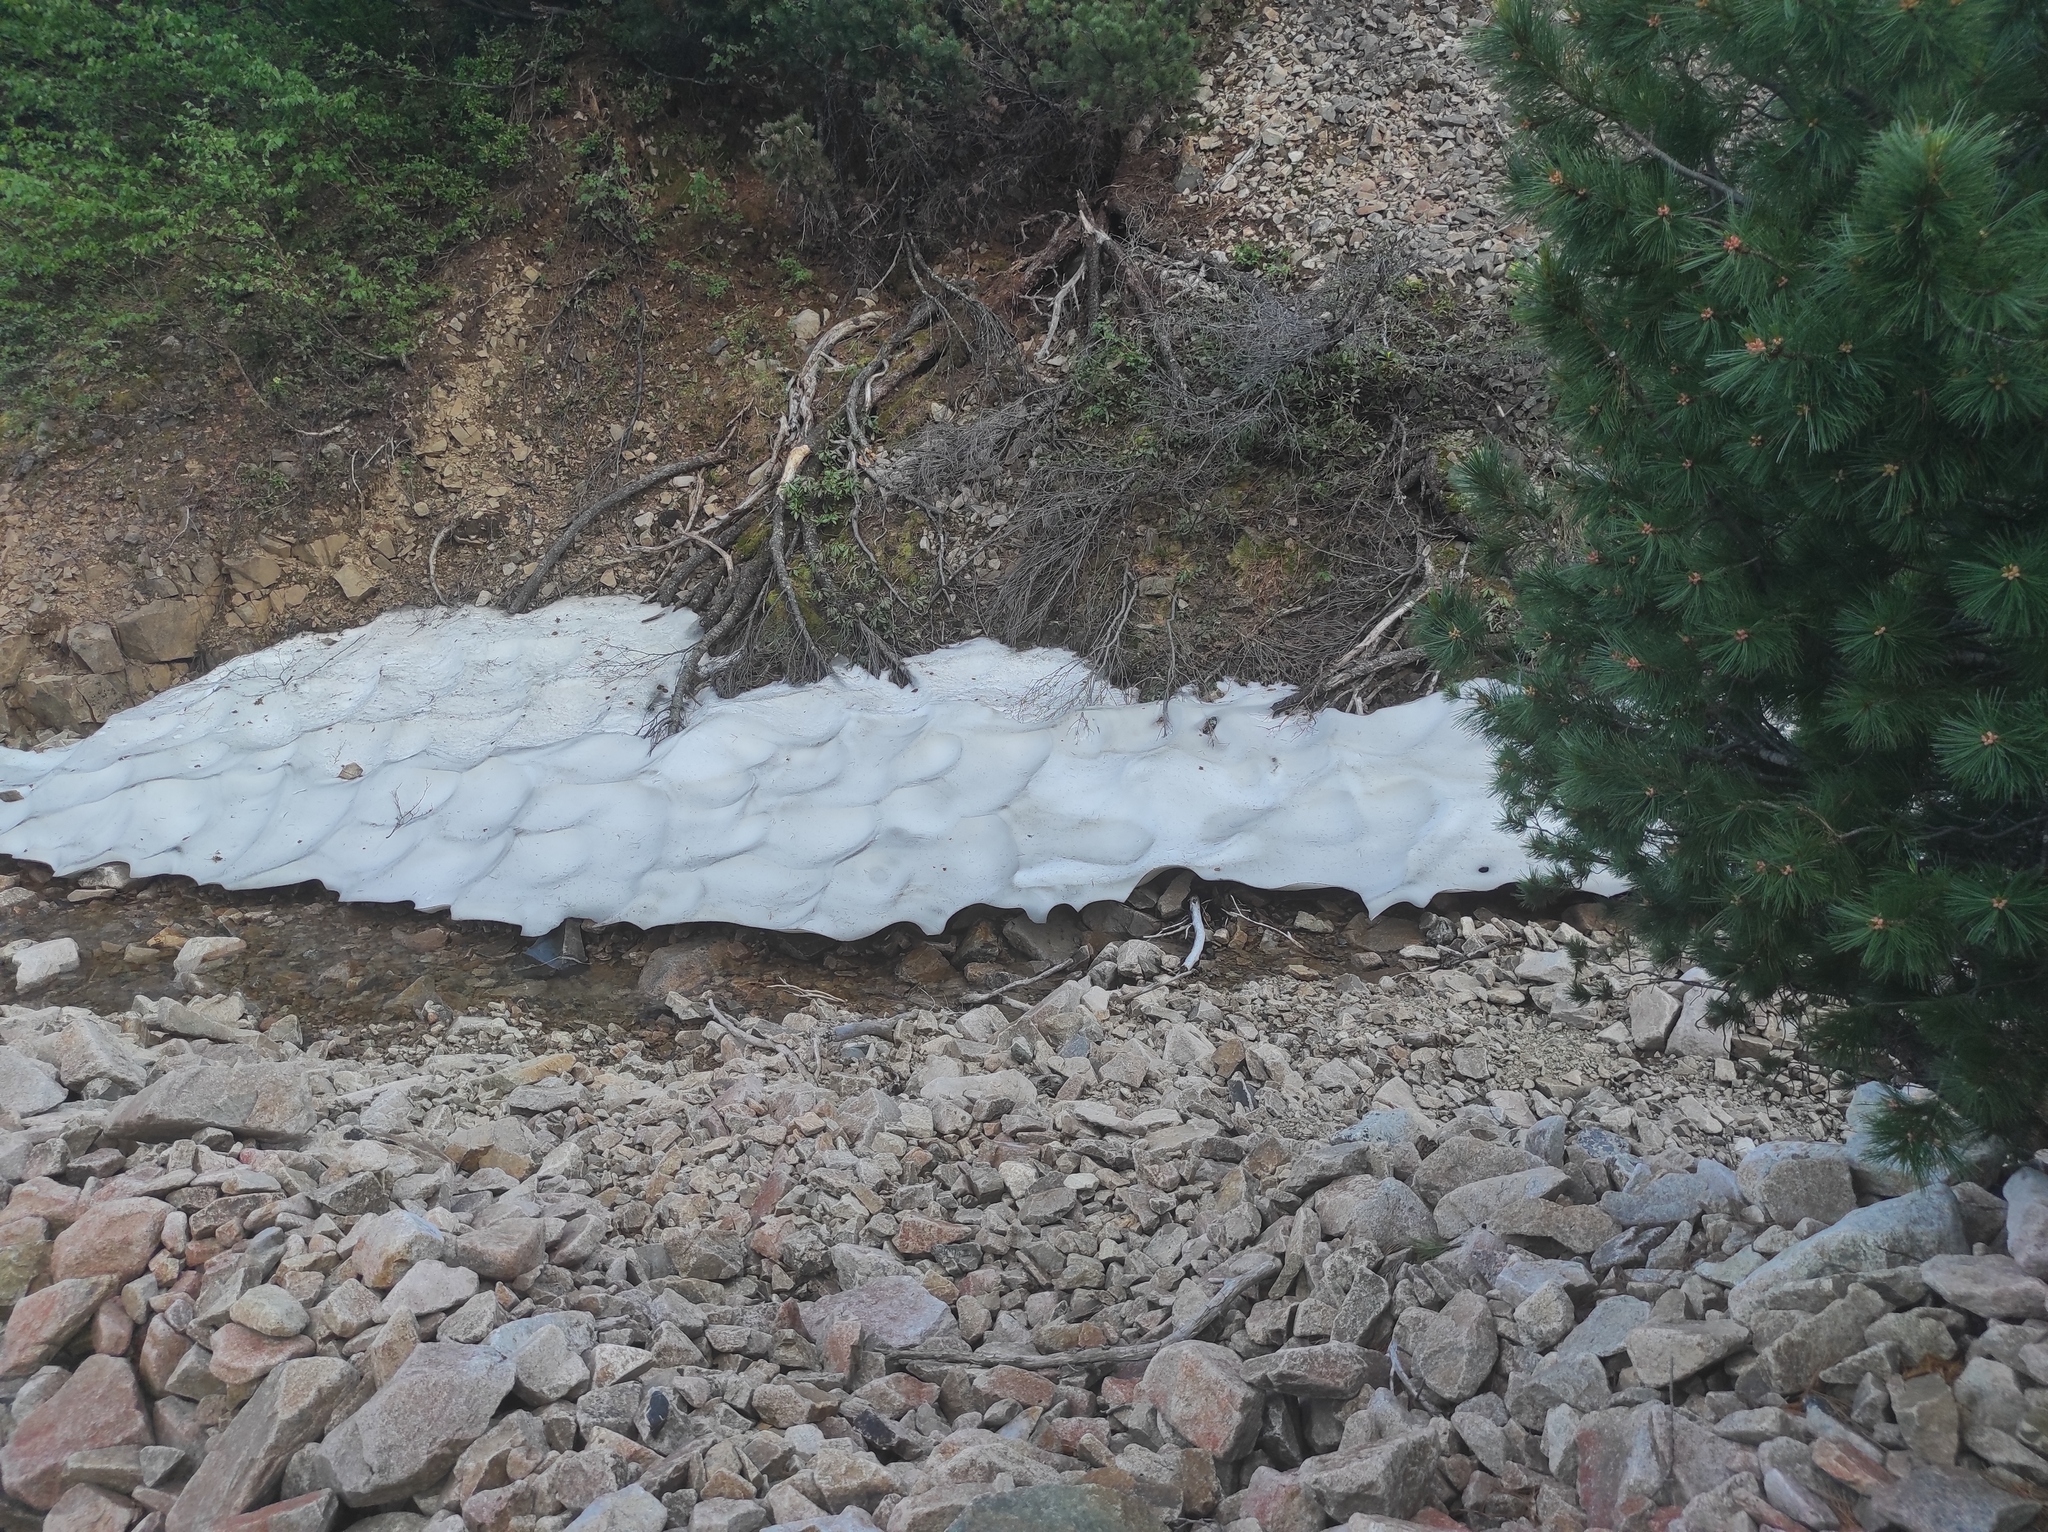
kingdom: Plantae
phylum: Tracheophyta
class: Pinopsida
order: Pinales
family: Pinaceae
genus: Pinus
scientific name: Pinus pumila
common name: Dwarf siberian pine
